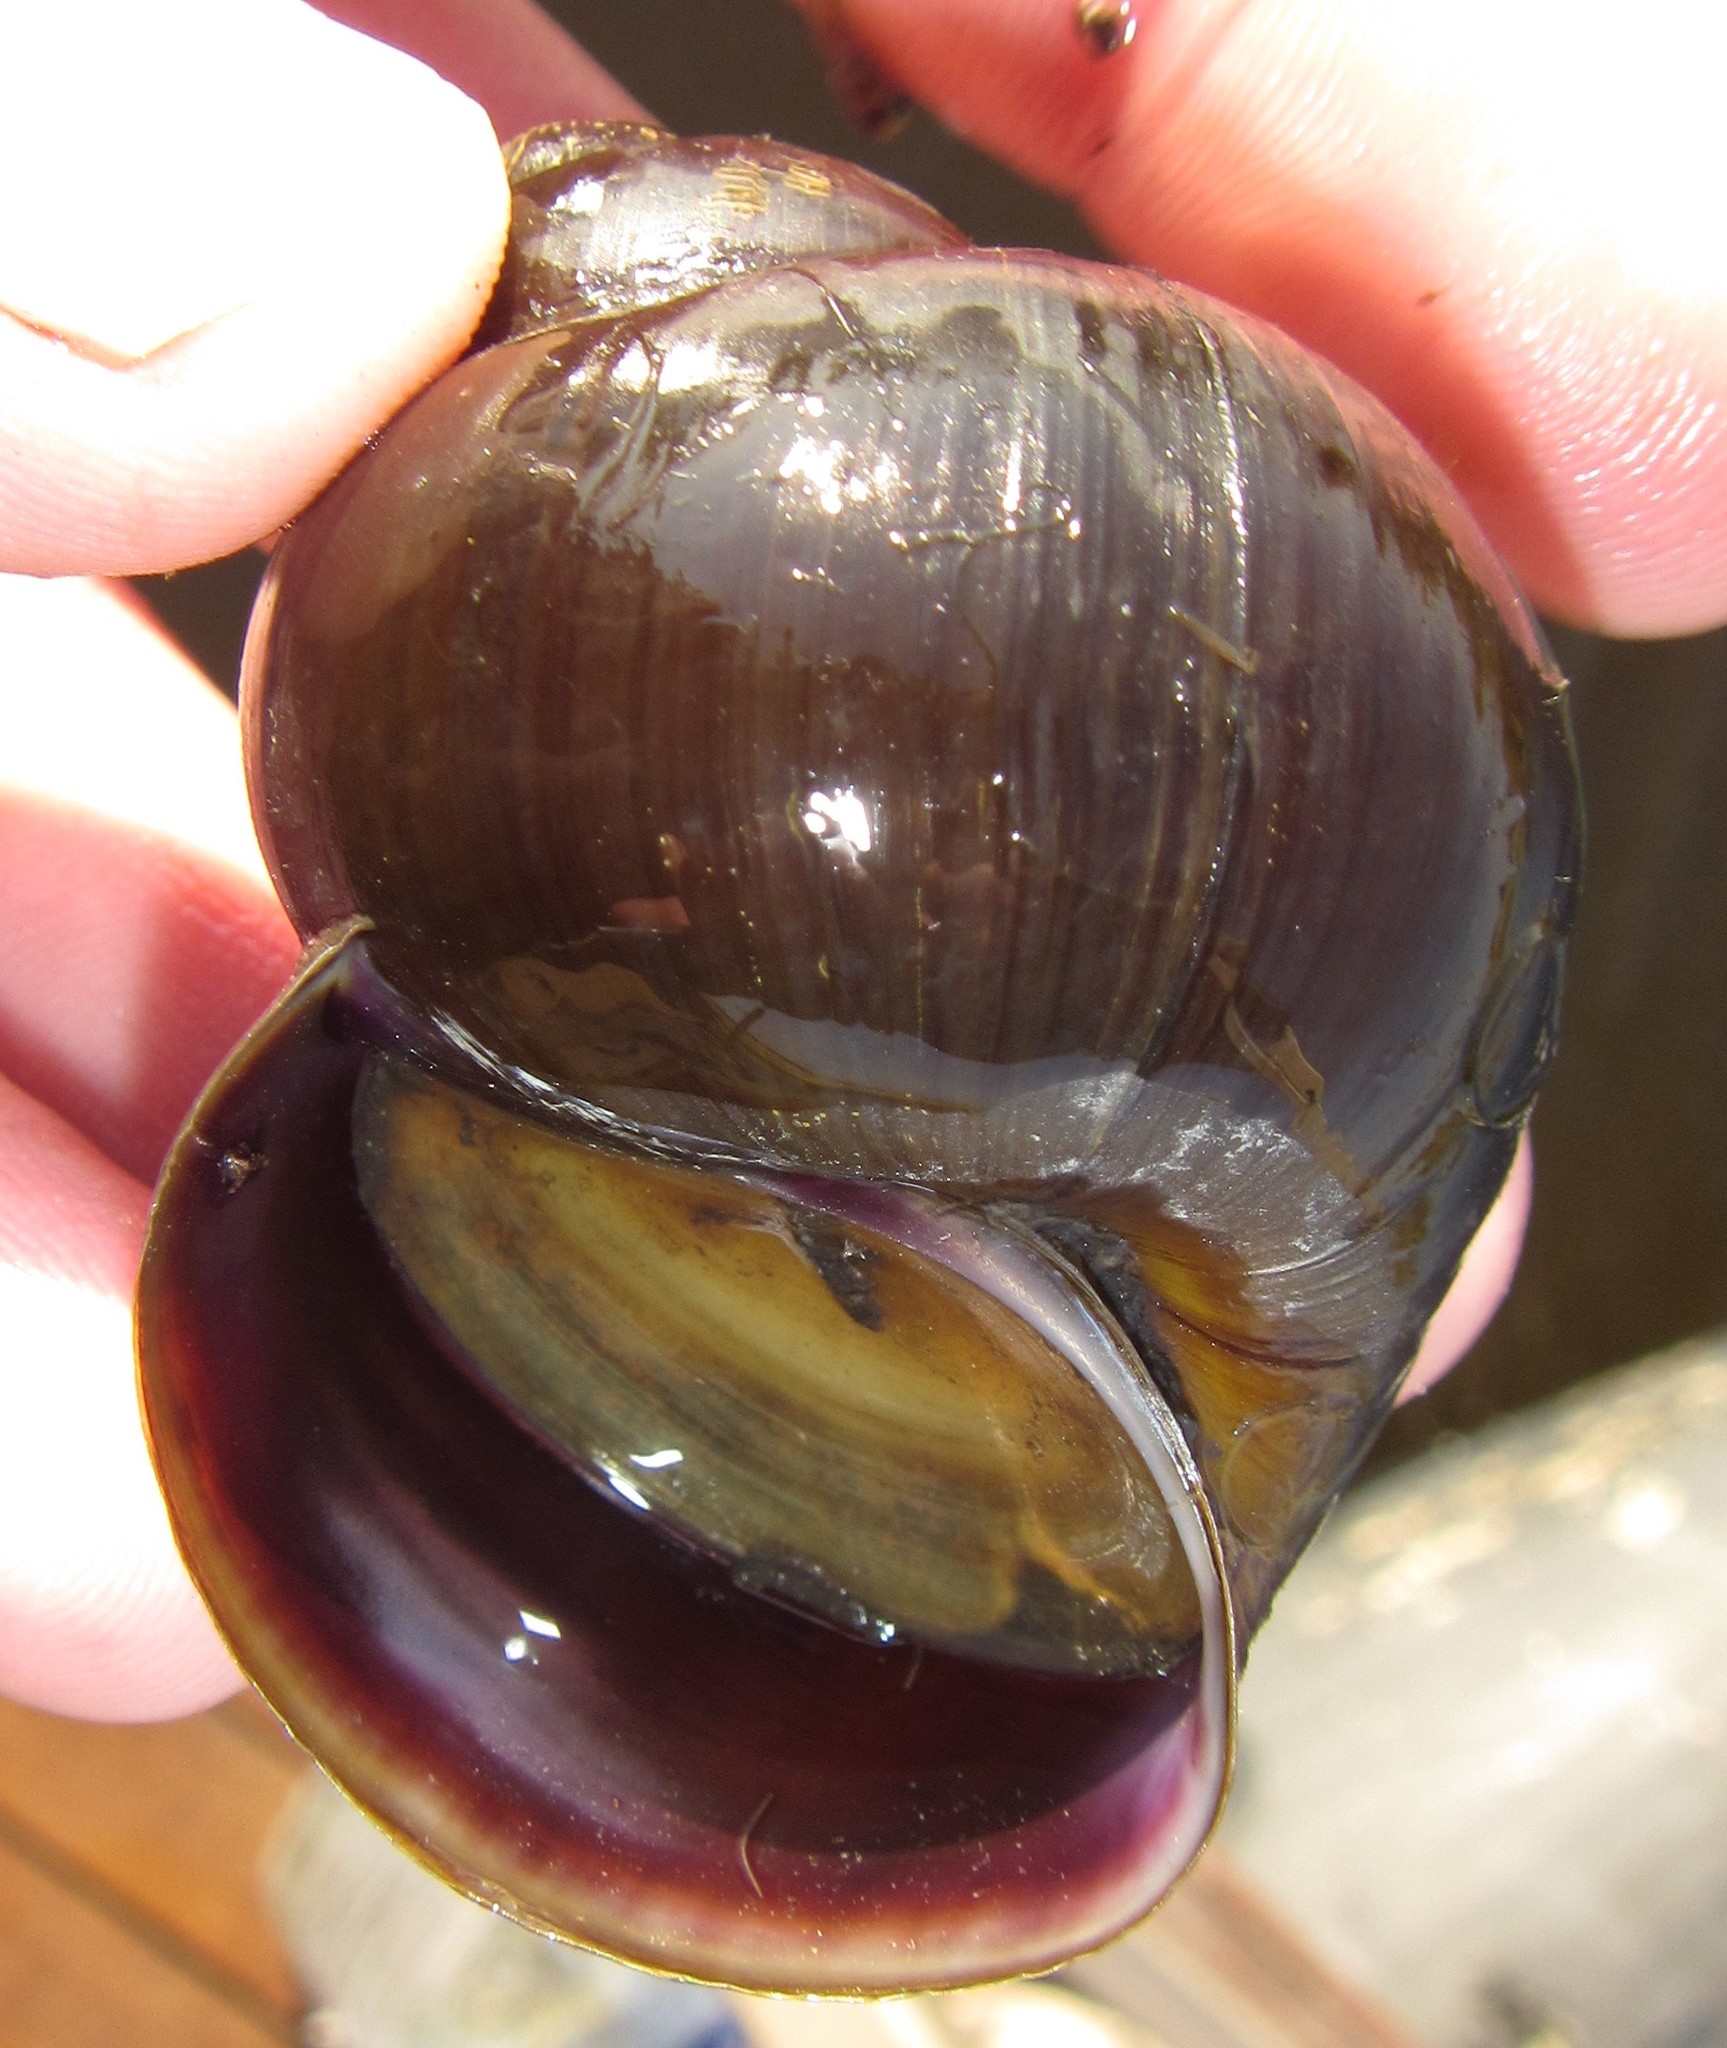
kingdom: Animalia
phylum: Mollusca
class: Gastropoda
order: Architaenioglossa
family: Ampullariidae
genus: Lanistes
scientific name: Lanistes ovum
